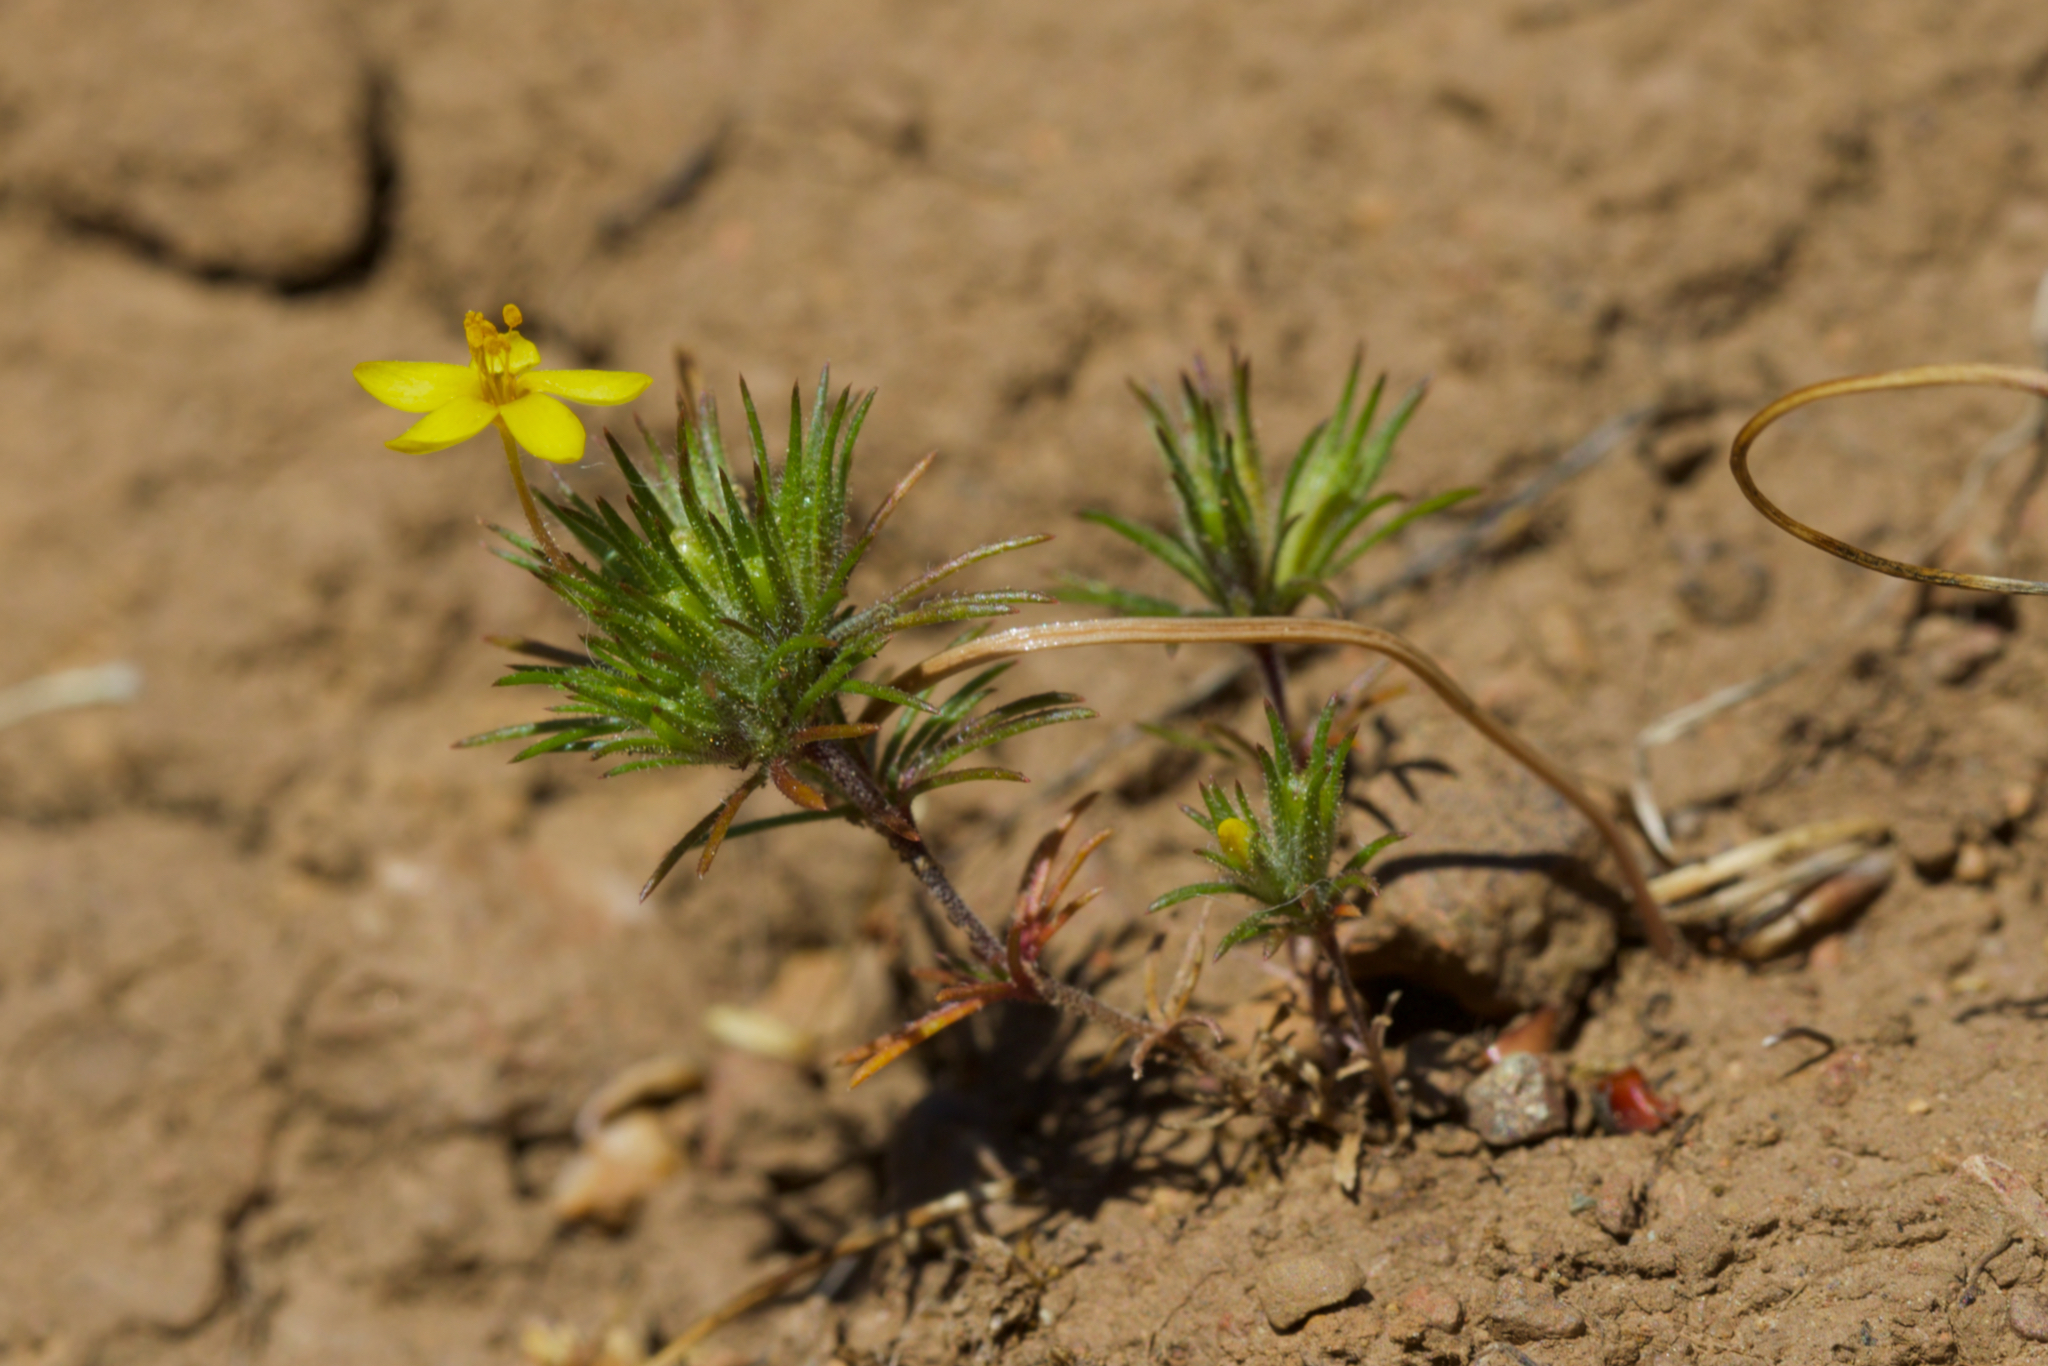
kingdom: Plantae
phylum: Tracheophyta
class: Magnoliopsida
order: Ericales
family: Polemoniaceae
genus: Leptosiphon
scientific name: Leptosiphon acicularis
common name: Bristly linanthus
